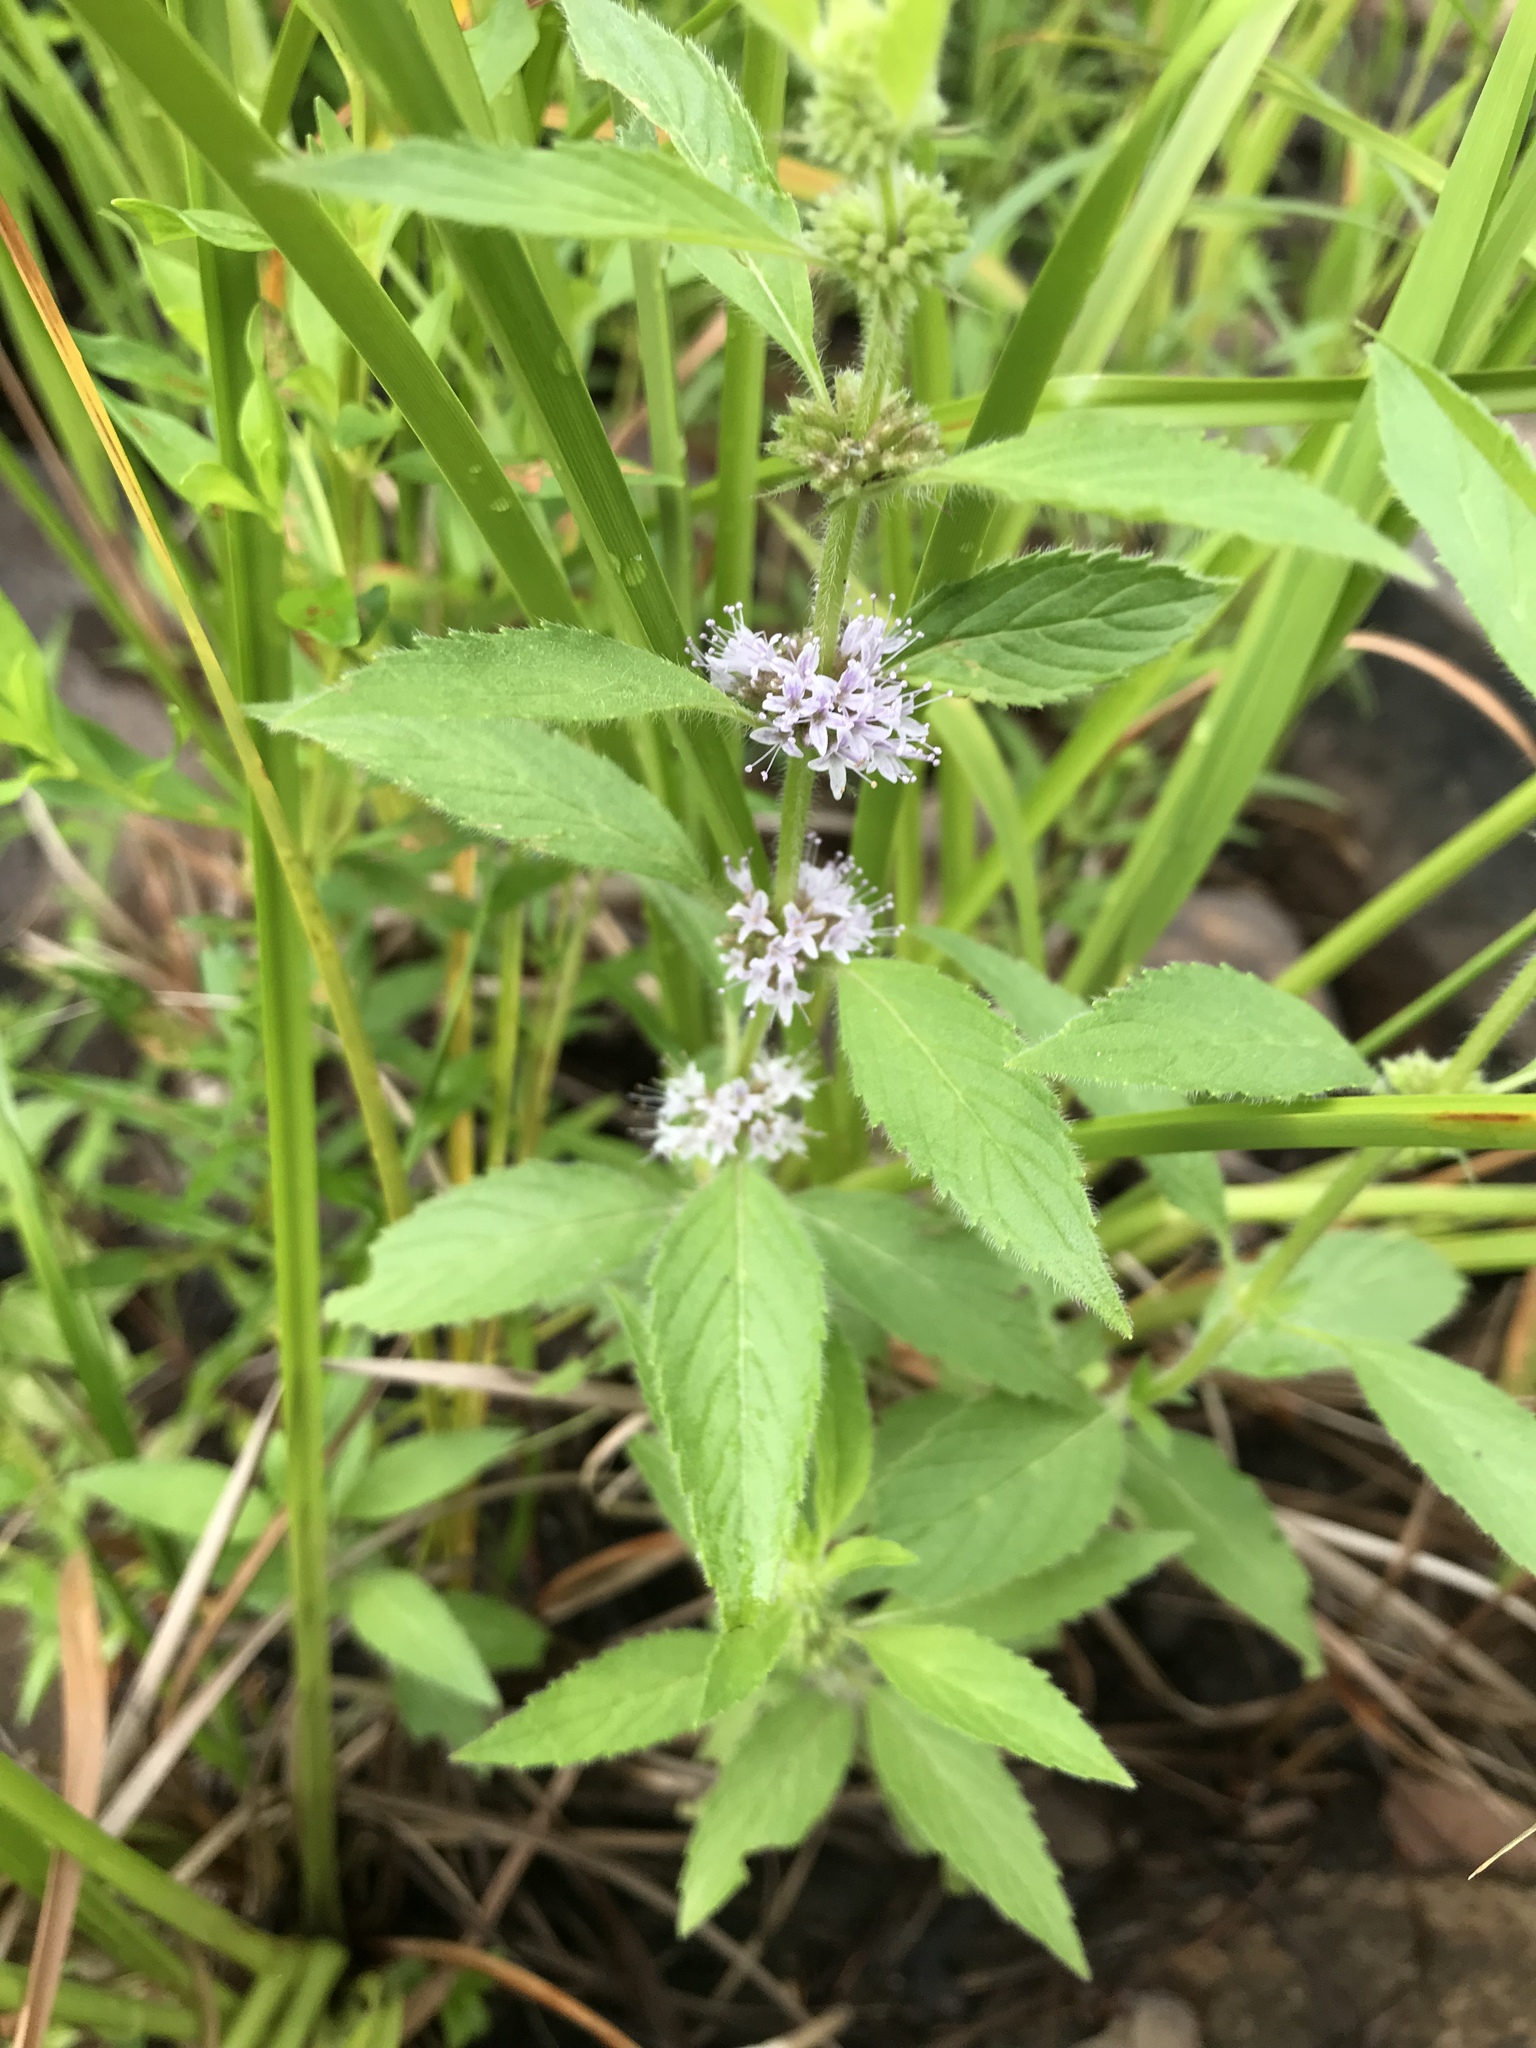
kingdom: Plantae
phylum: Tracheophyta
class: Magnoliopsida
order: Lamiales
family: Lamiaceae
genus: Mentha
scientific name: Mentha canadensis
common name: American corn mint
